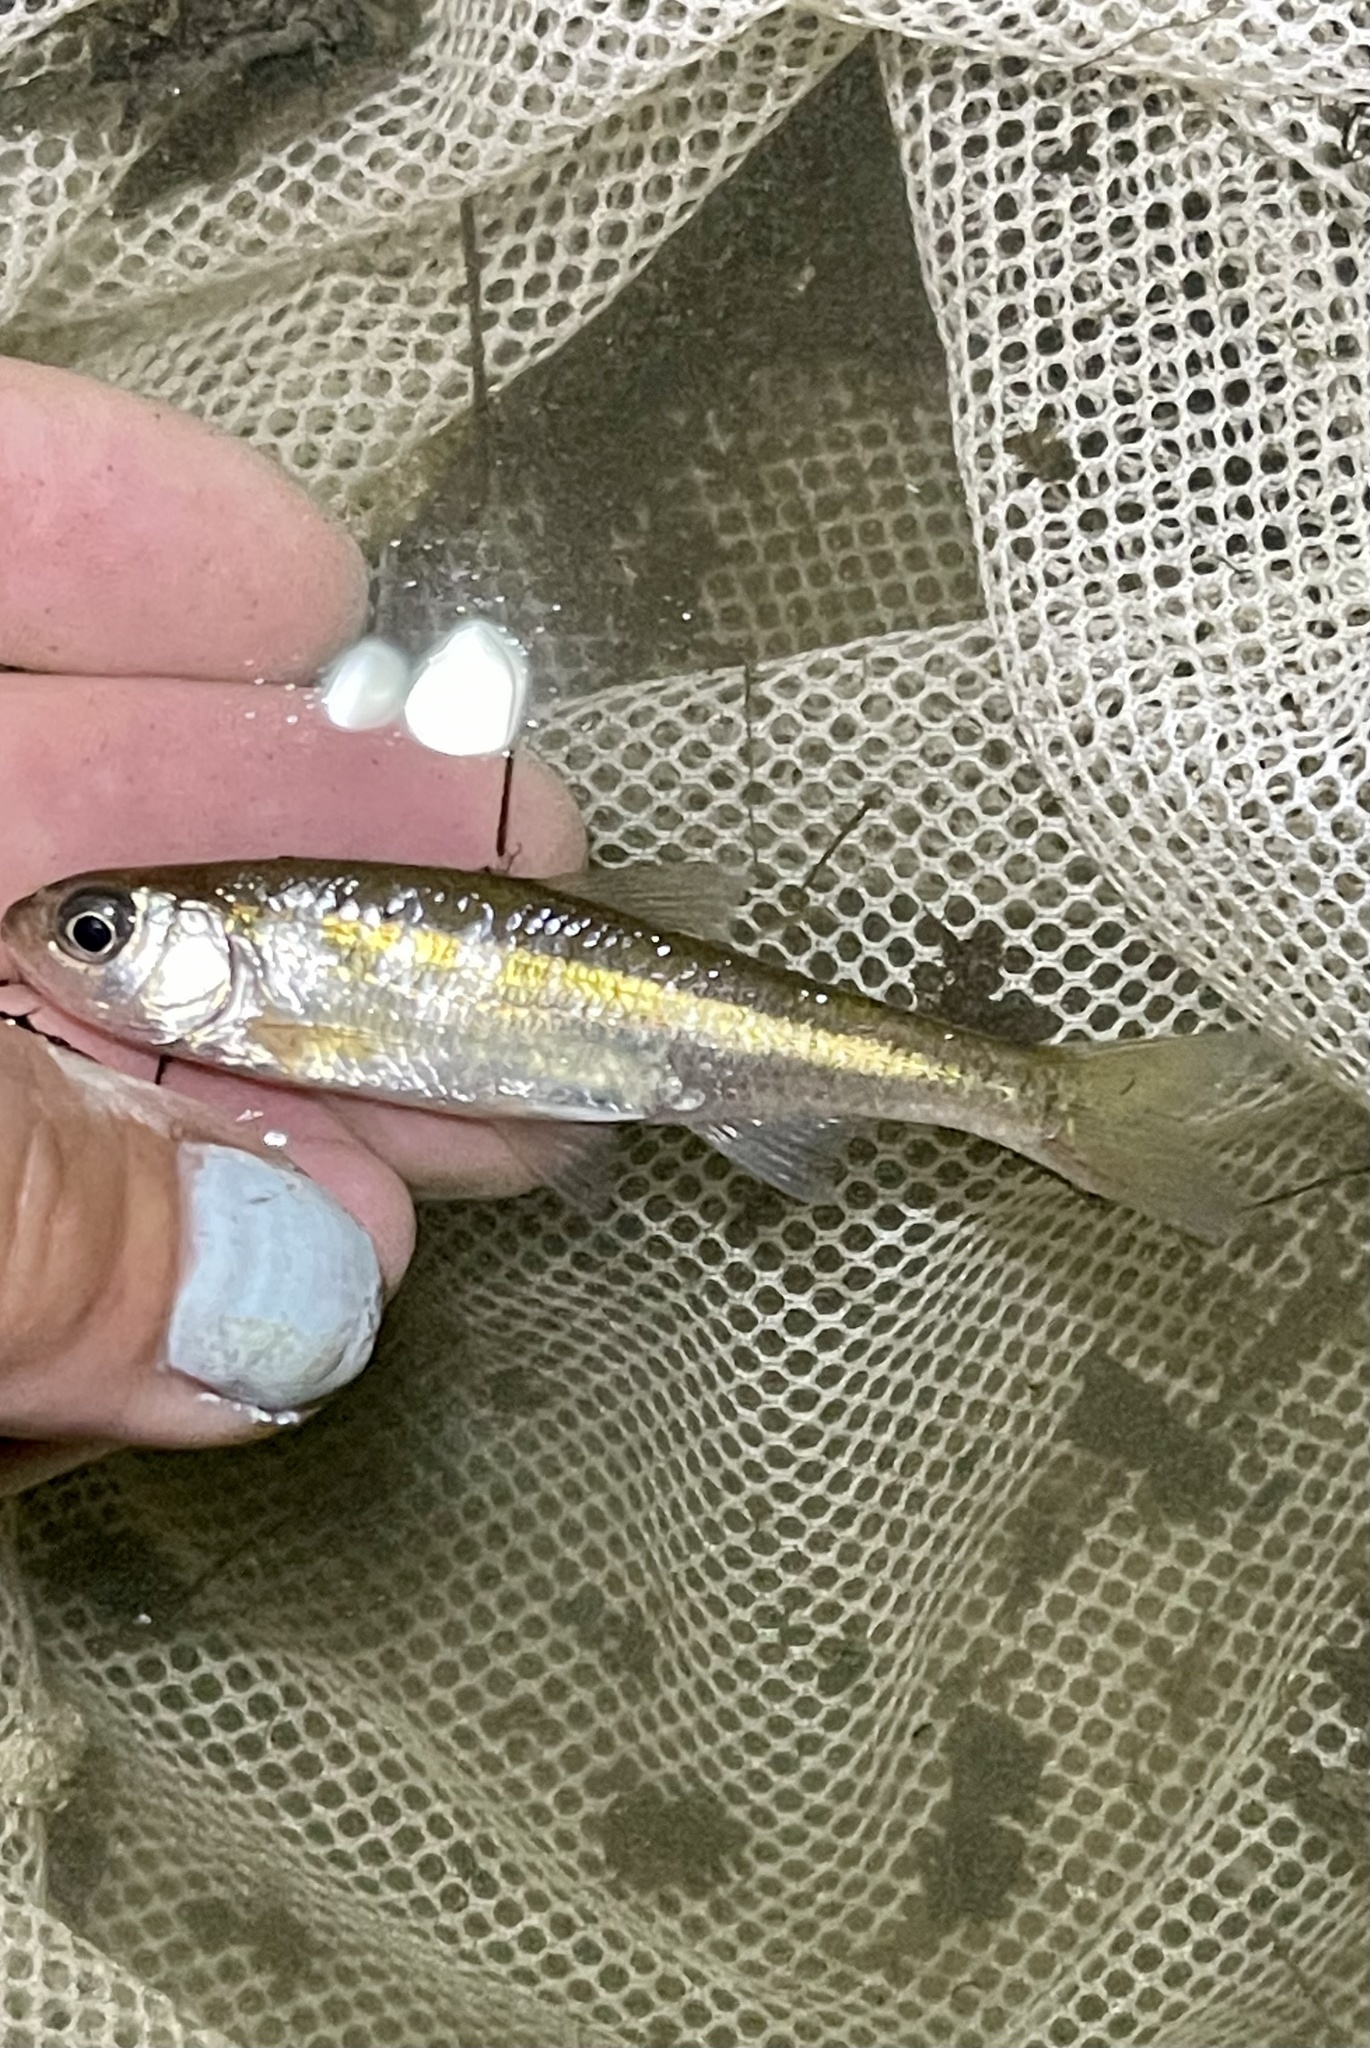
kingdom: Animalia
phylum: Chordata
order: Cypriniformes
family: Cyprinidae
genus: Luxilus
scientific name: Luxilus cornutus
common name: Common shiner
